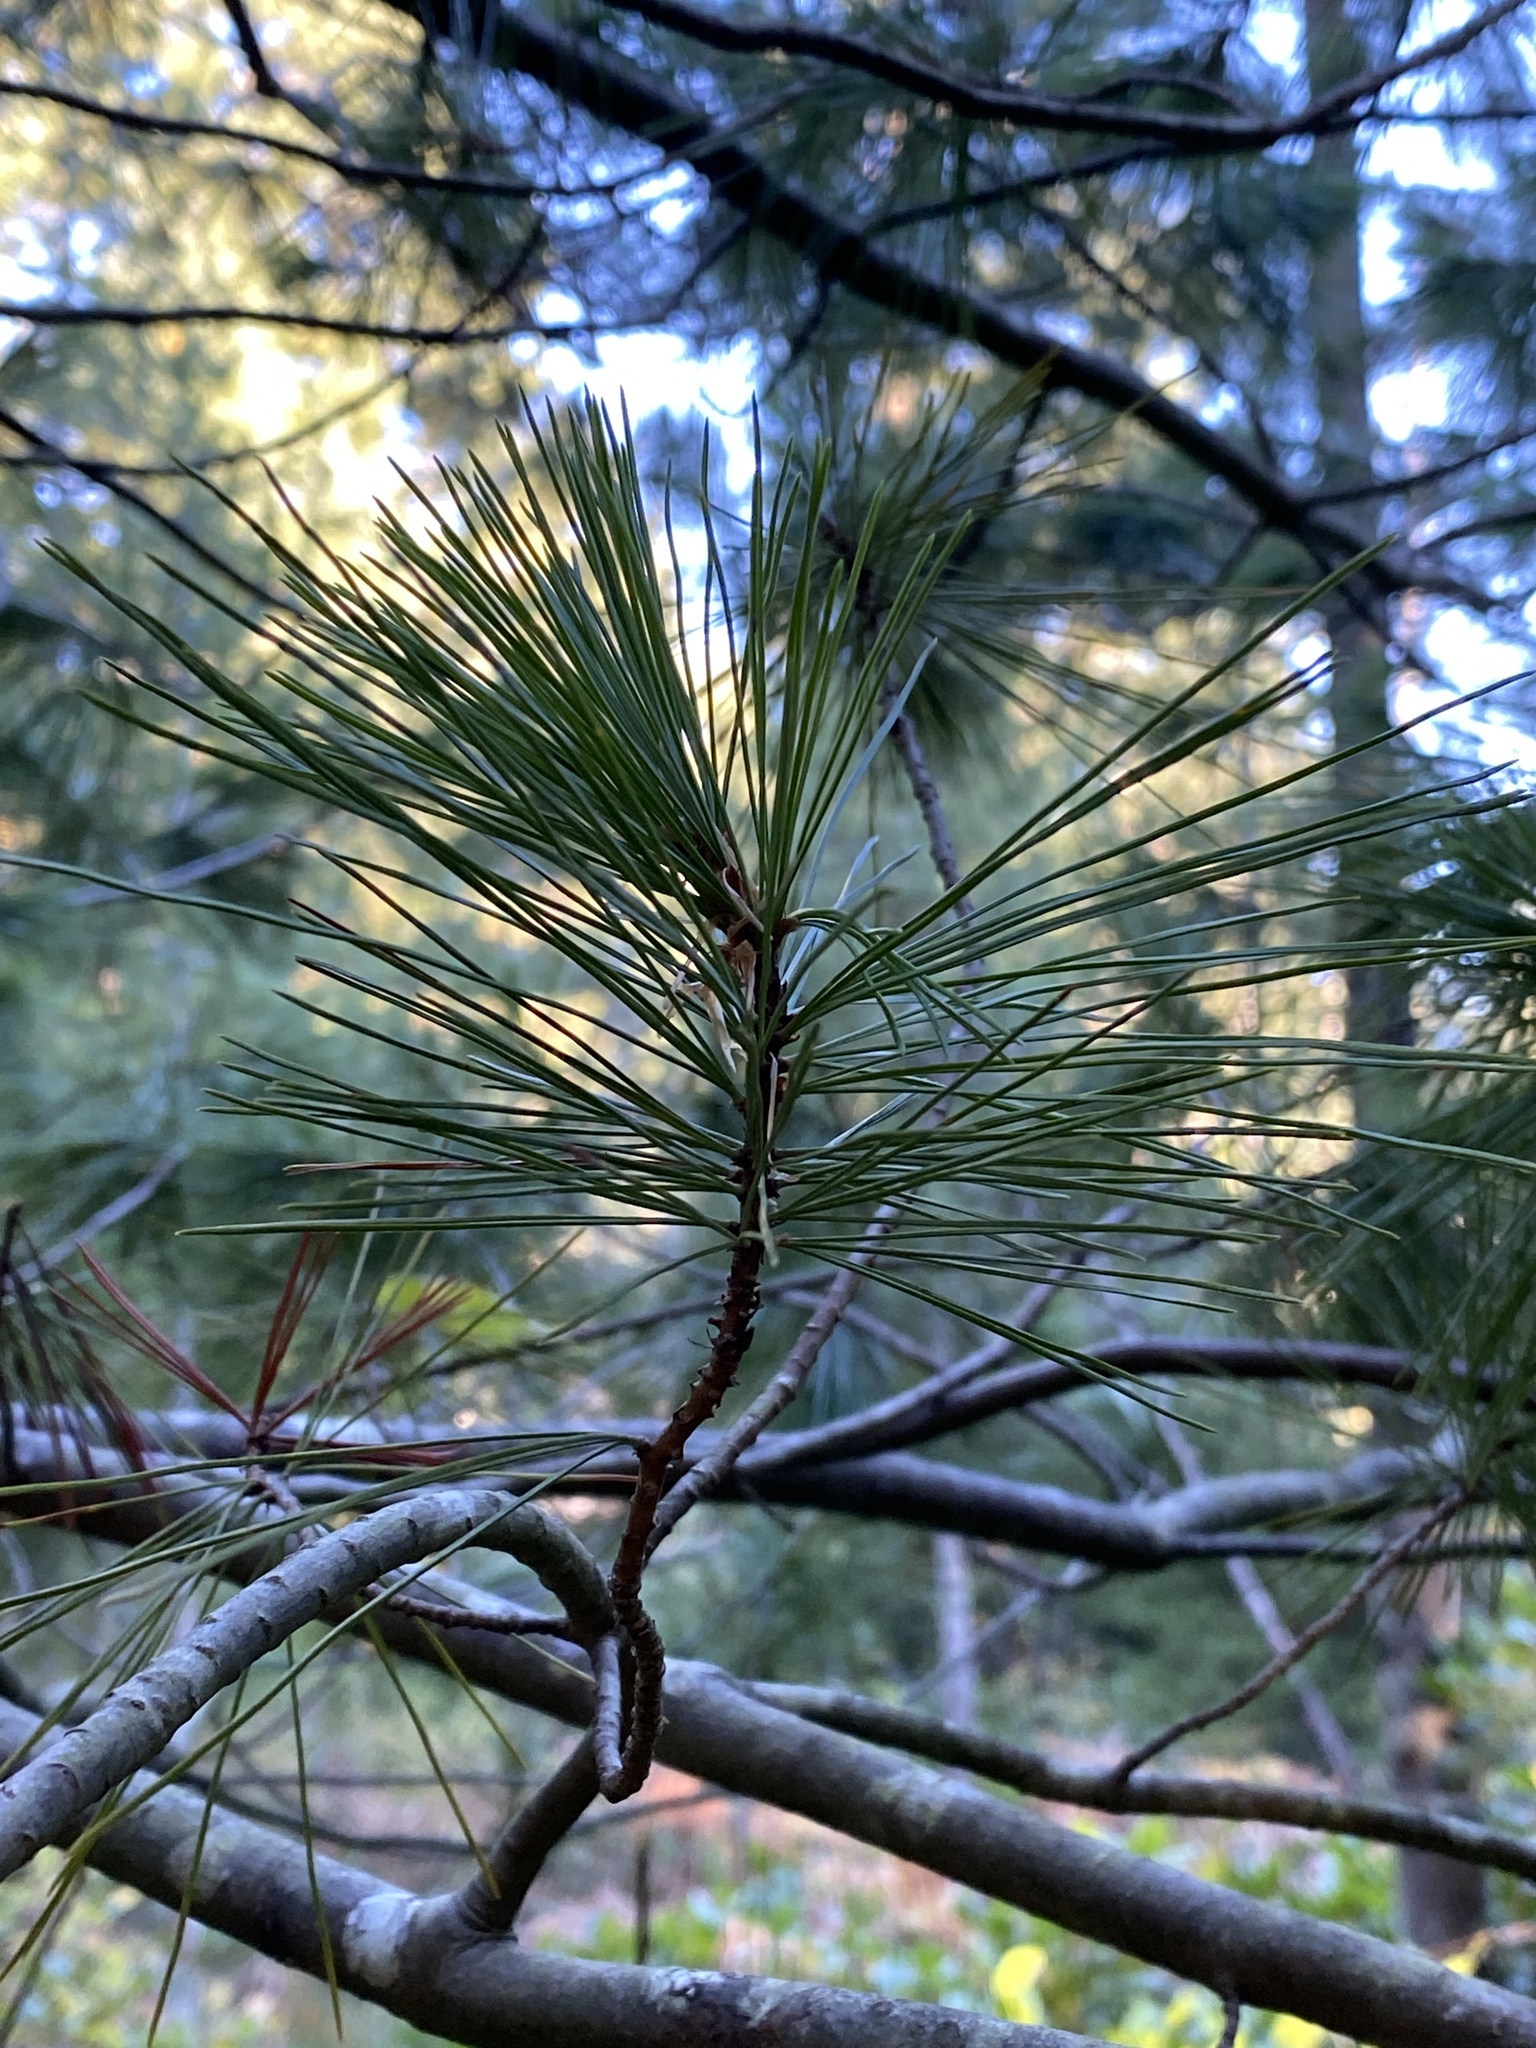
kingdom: Plantae
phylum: Tracheophyta
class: Pinopsida
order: Pinales
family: Pinaceae
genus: Pinus
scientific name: Pinus monticola
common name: Western white pine
